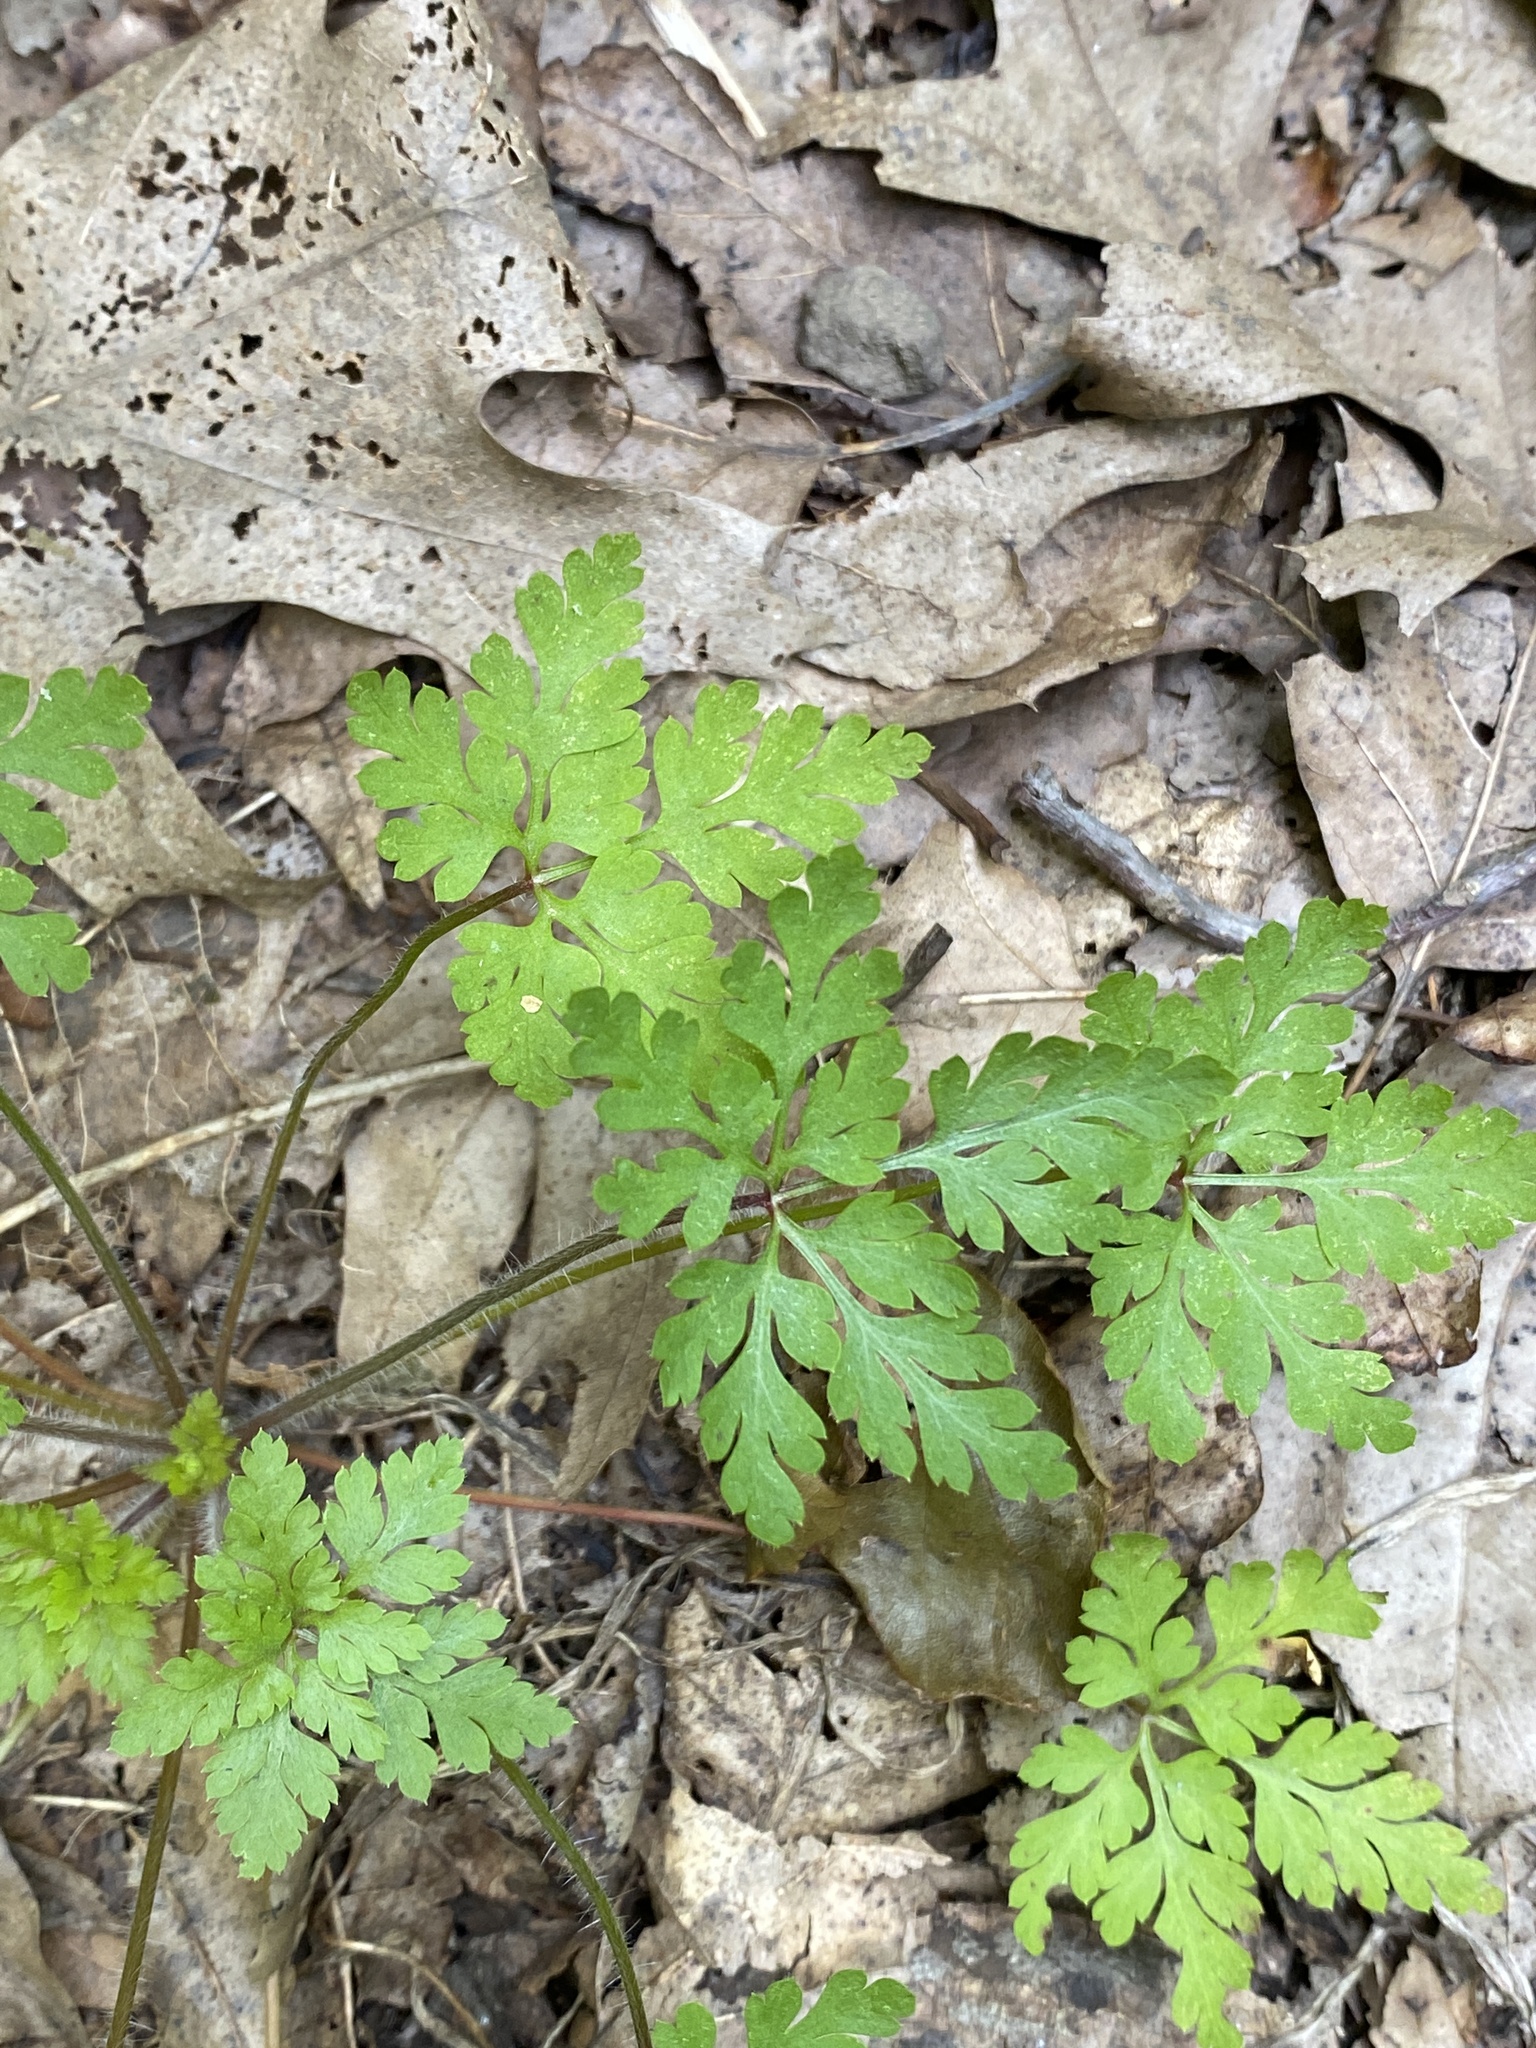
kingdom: Plantae
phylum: Tracheophyta
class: Magnoliopsida
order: Geraniales
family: Geraniaceae
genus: Geranium
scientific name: Geranium robertianum
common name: Herb-robert
